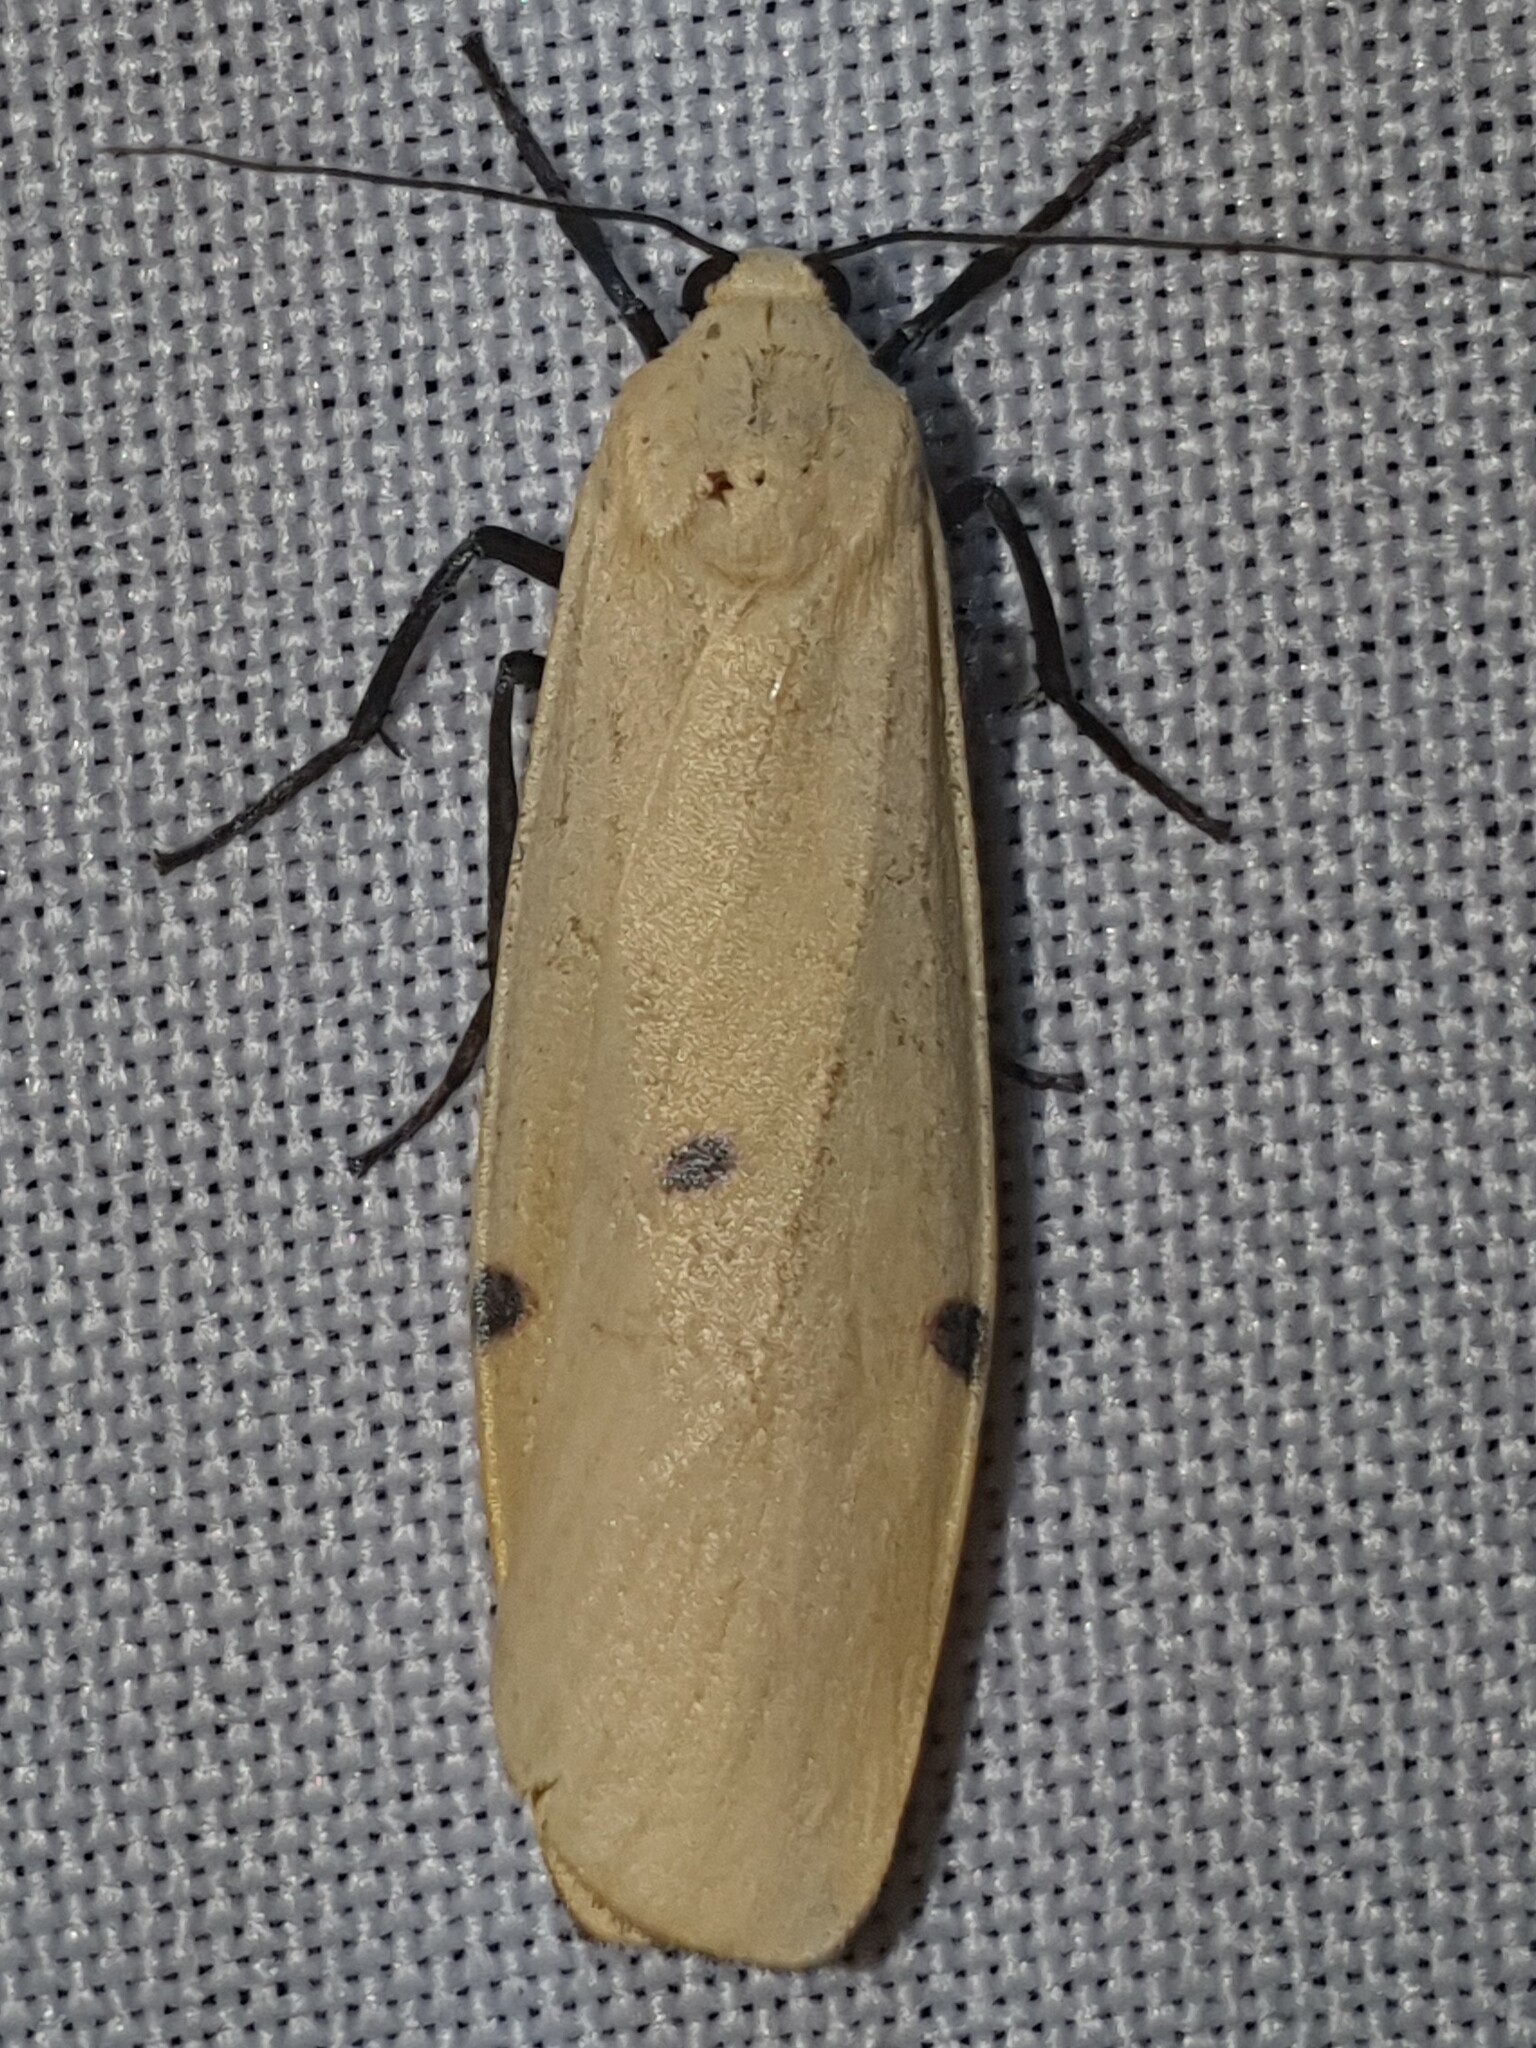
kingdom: Animalia
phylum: Arthropoda
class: Insecta
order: Lepidoptera
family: Erebidae
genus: Lithosia
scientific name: Lithosia quadra
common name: Four-spotted footman
